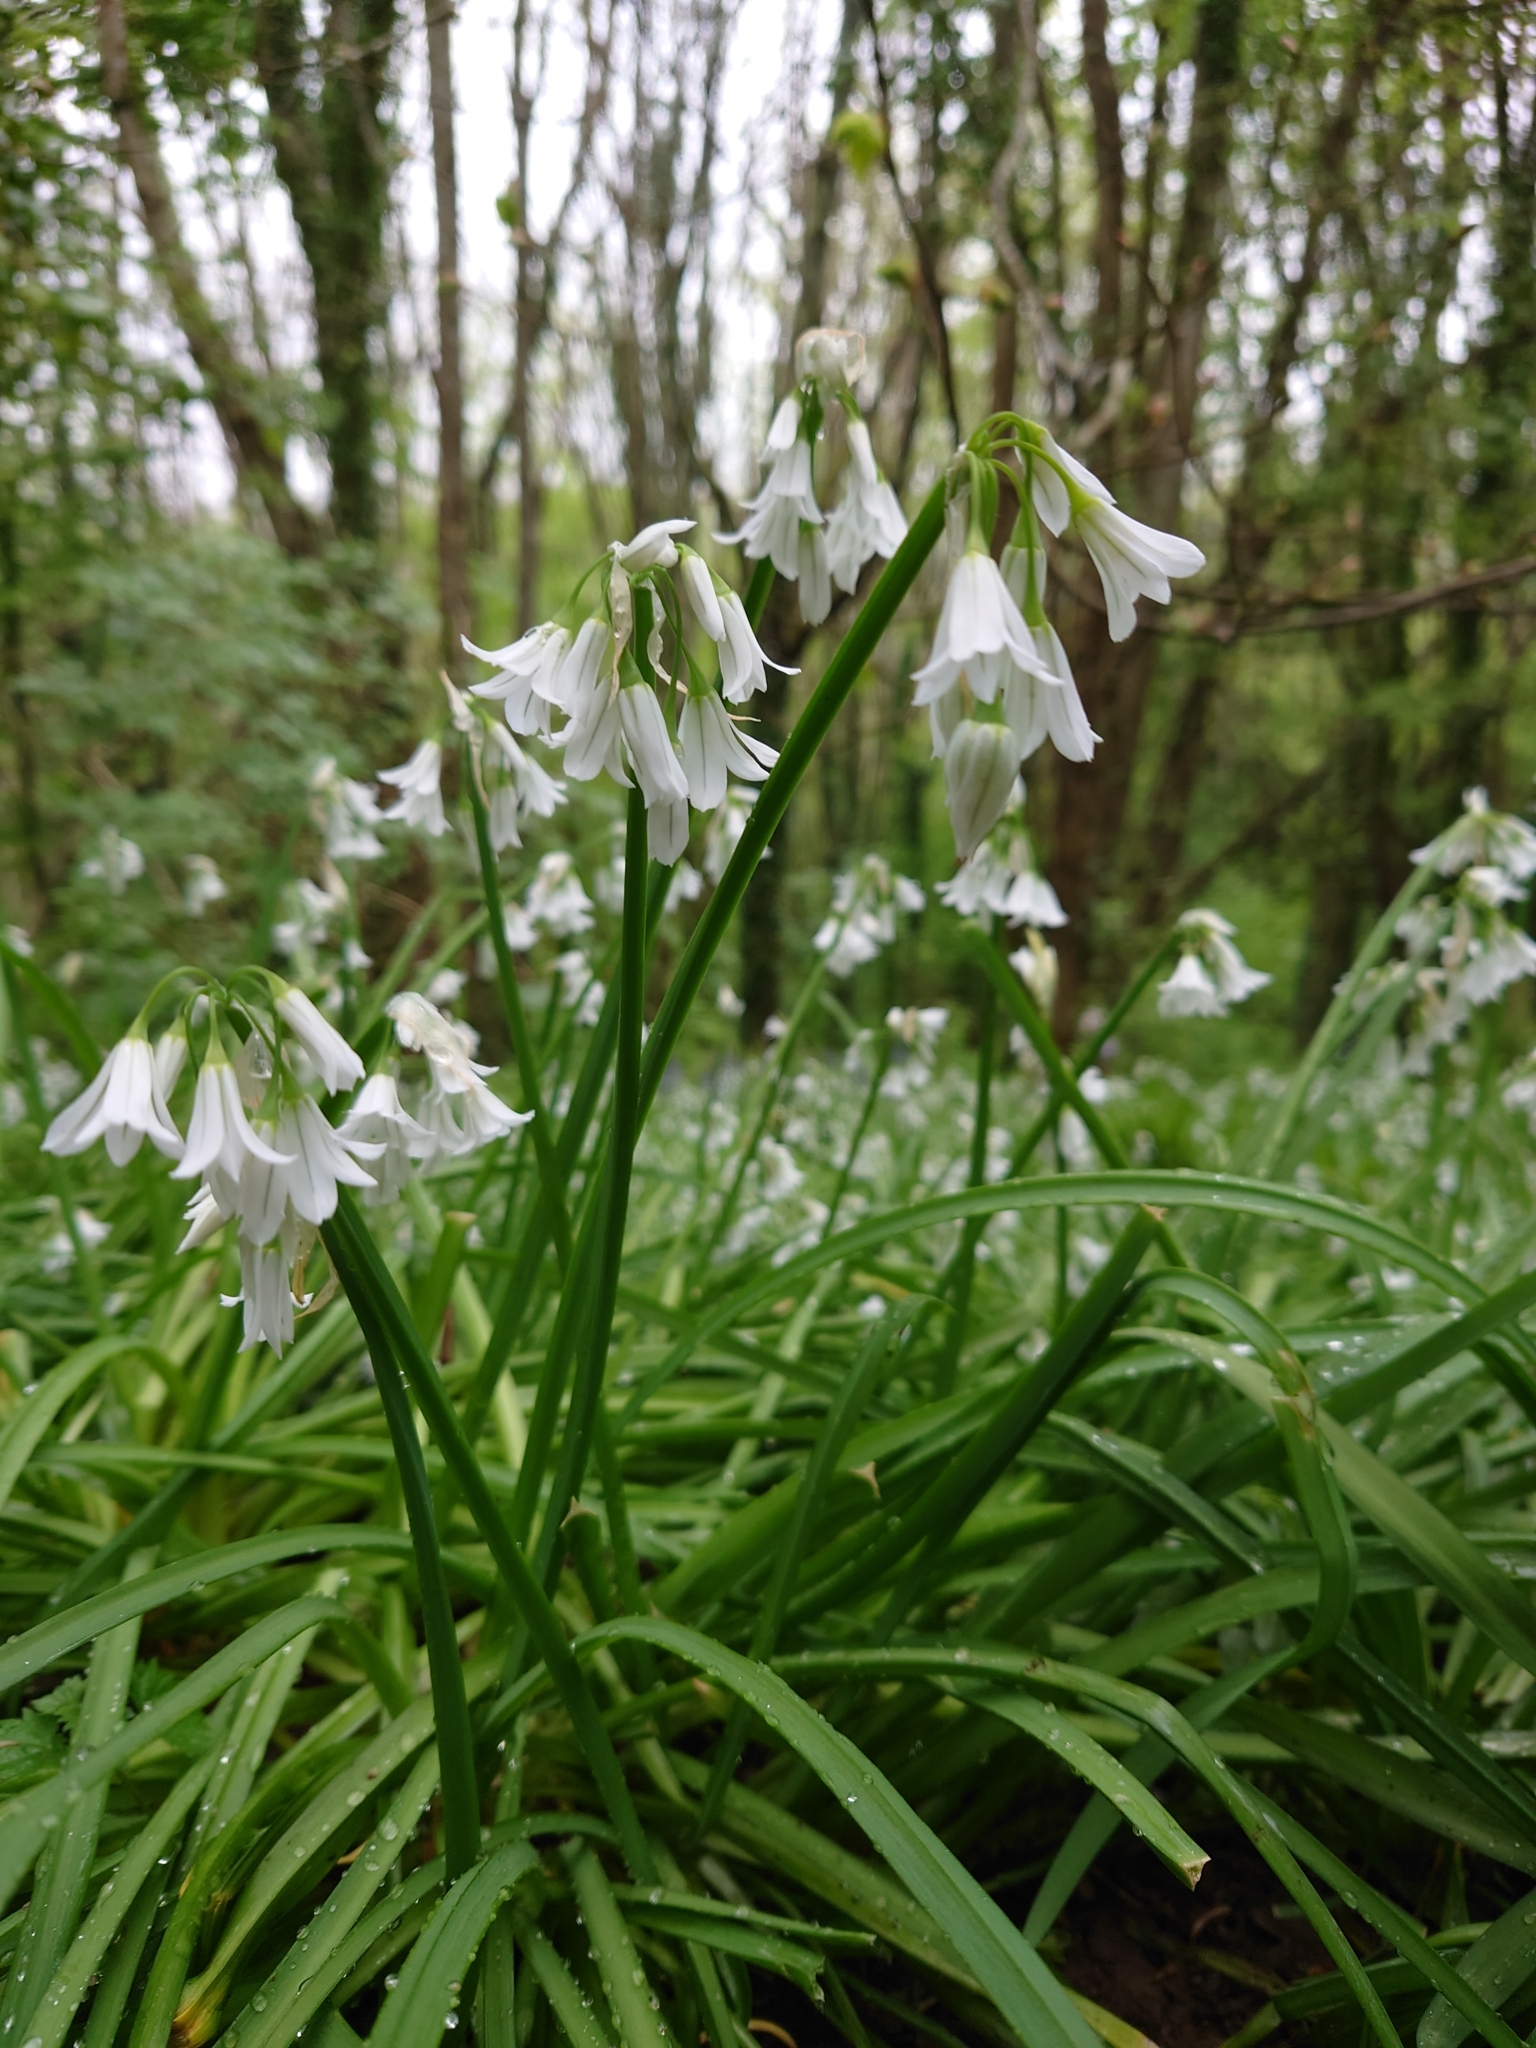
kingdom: Plantae
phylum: Tracheophyta
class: Liliopsida
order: Asparagales
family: Amaryllidaceae
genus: Allium
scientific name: Allium triquetrum
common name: Three-cornered garlic
